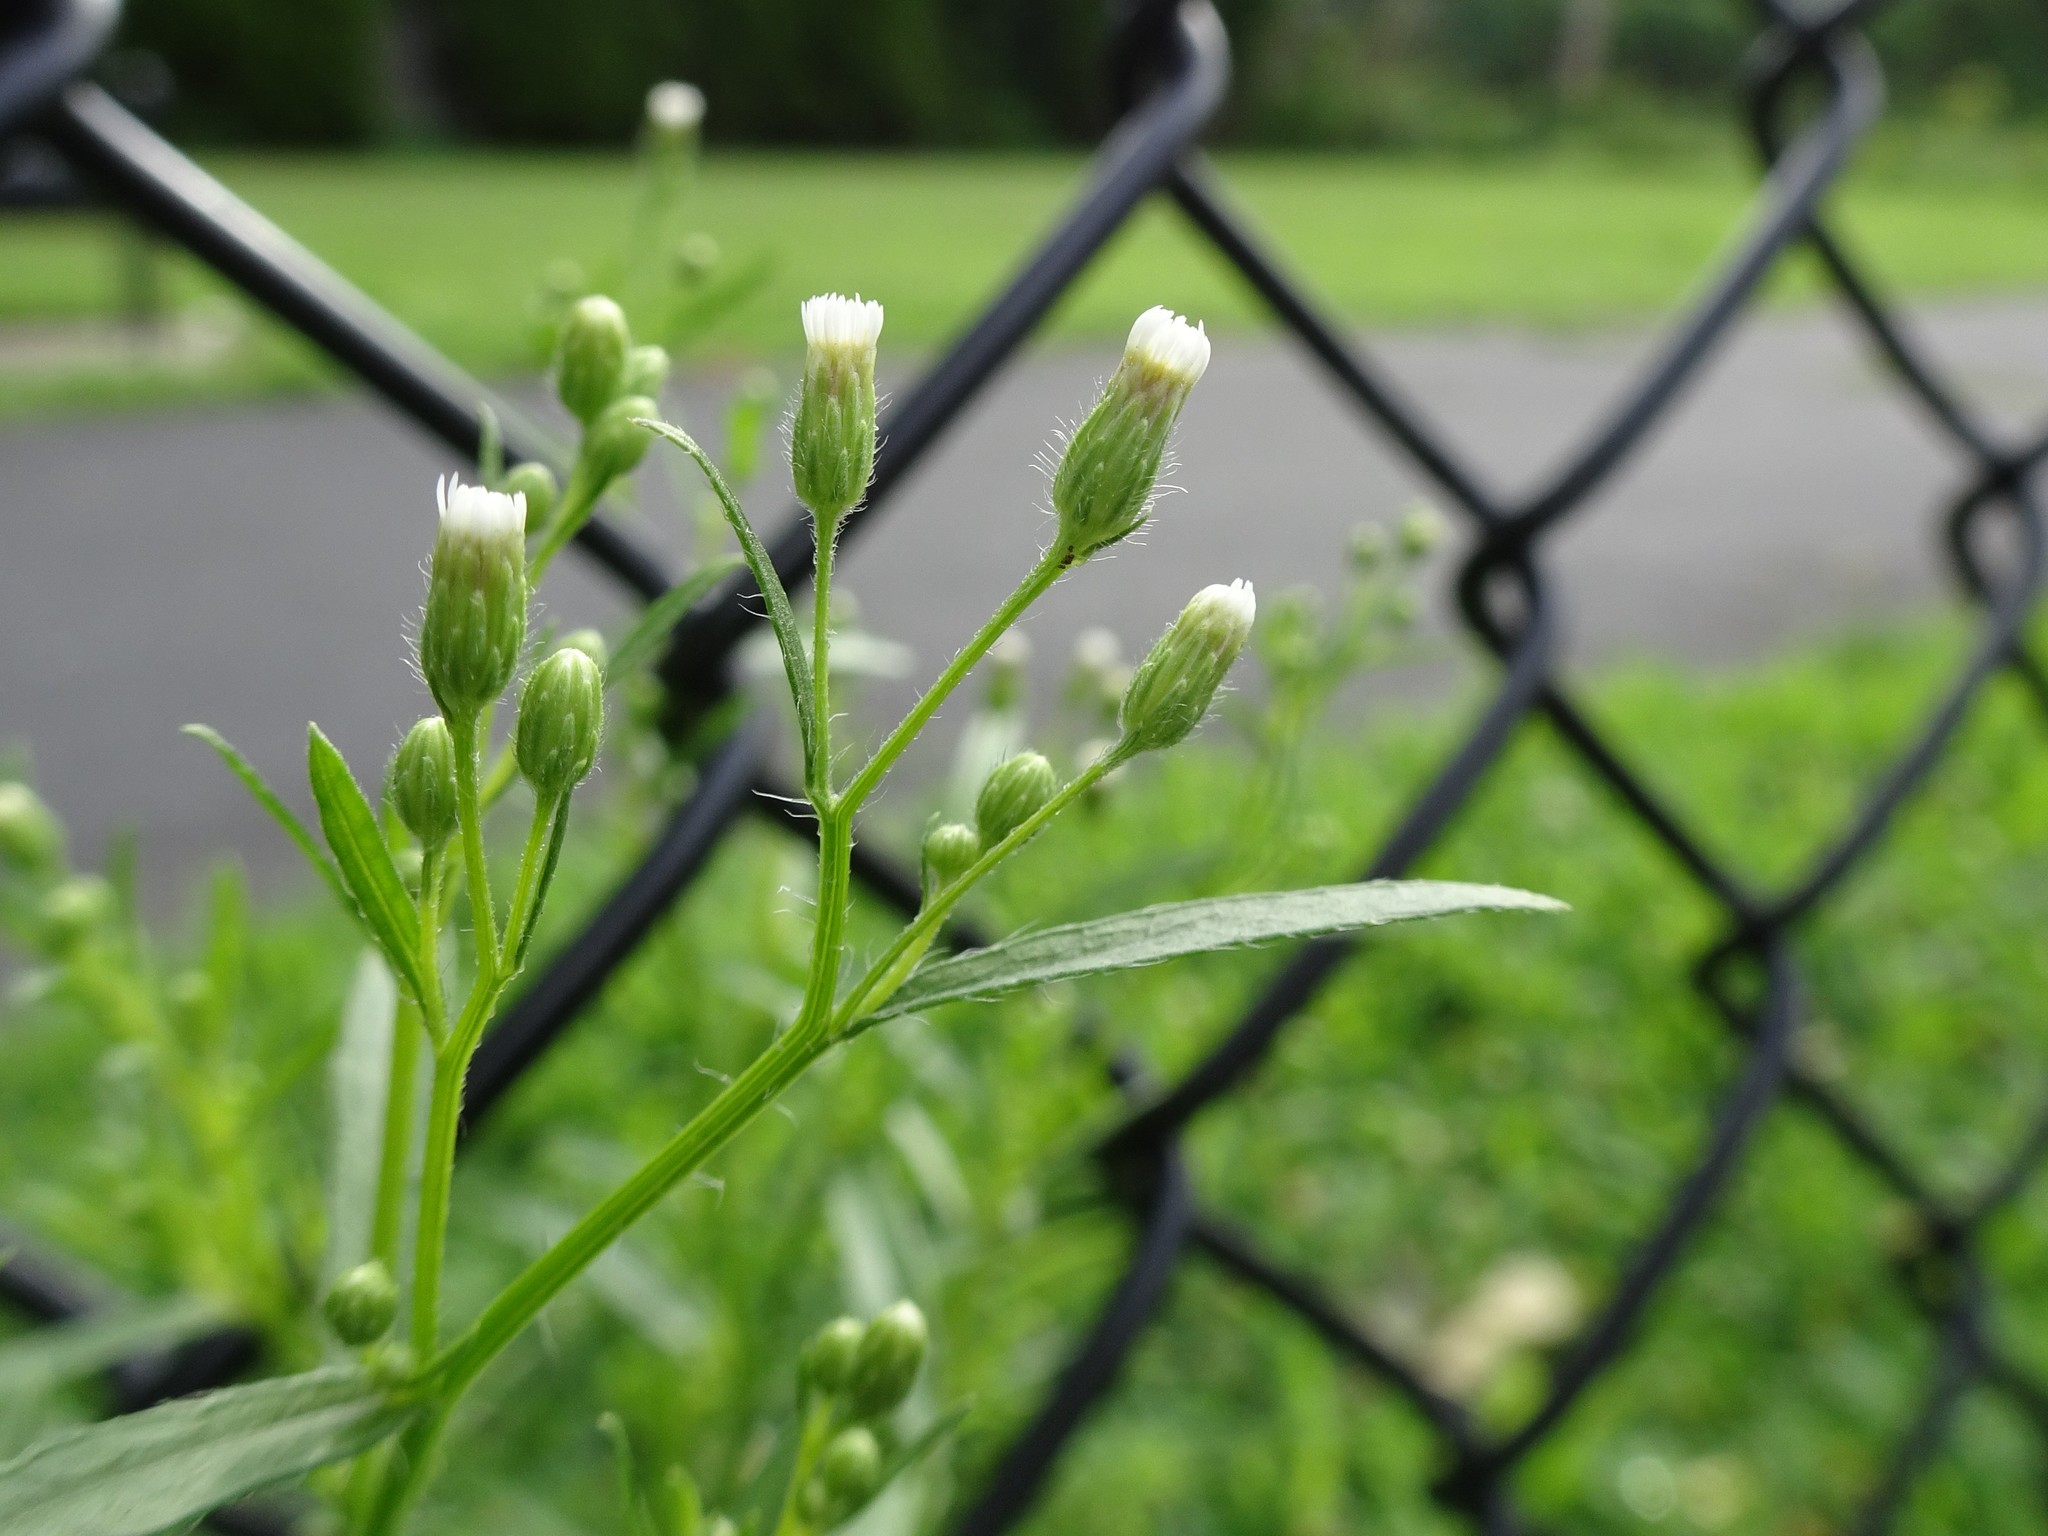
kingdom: Plantae
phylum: Tracheophyta
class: Magnoliopsida
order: Asterales
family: Asteraceae
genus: Erigeron
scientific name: Erigeron canadensis
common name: Canadian fleabane
